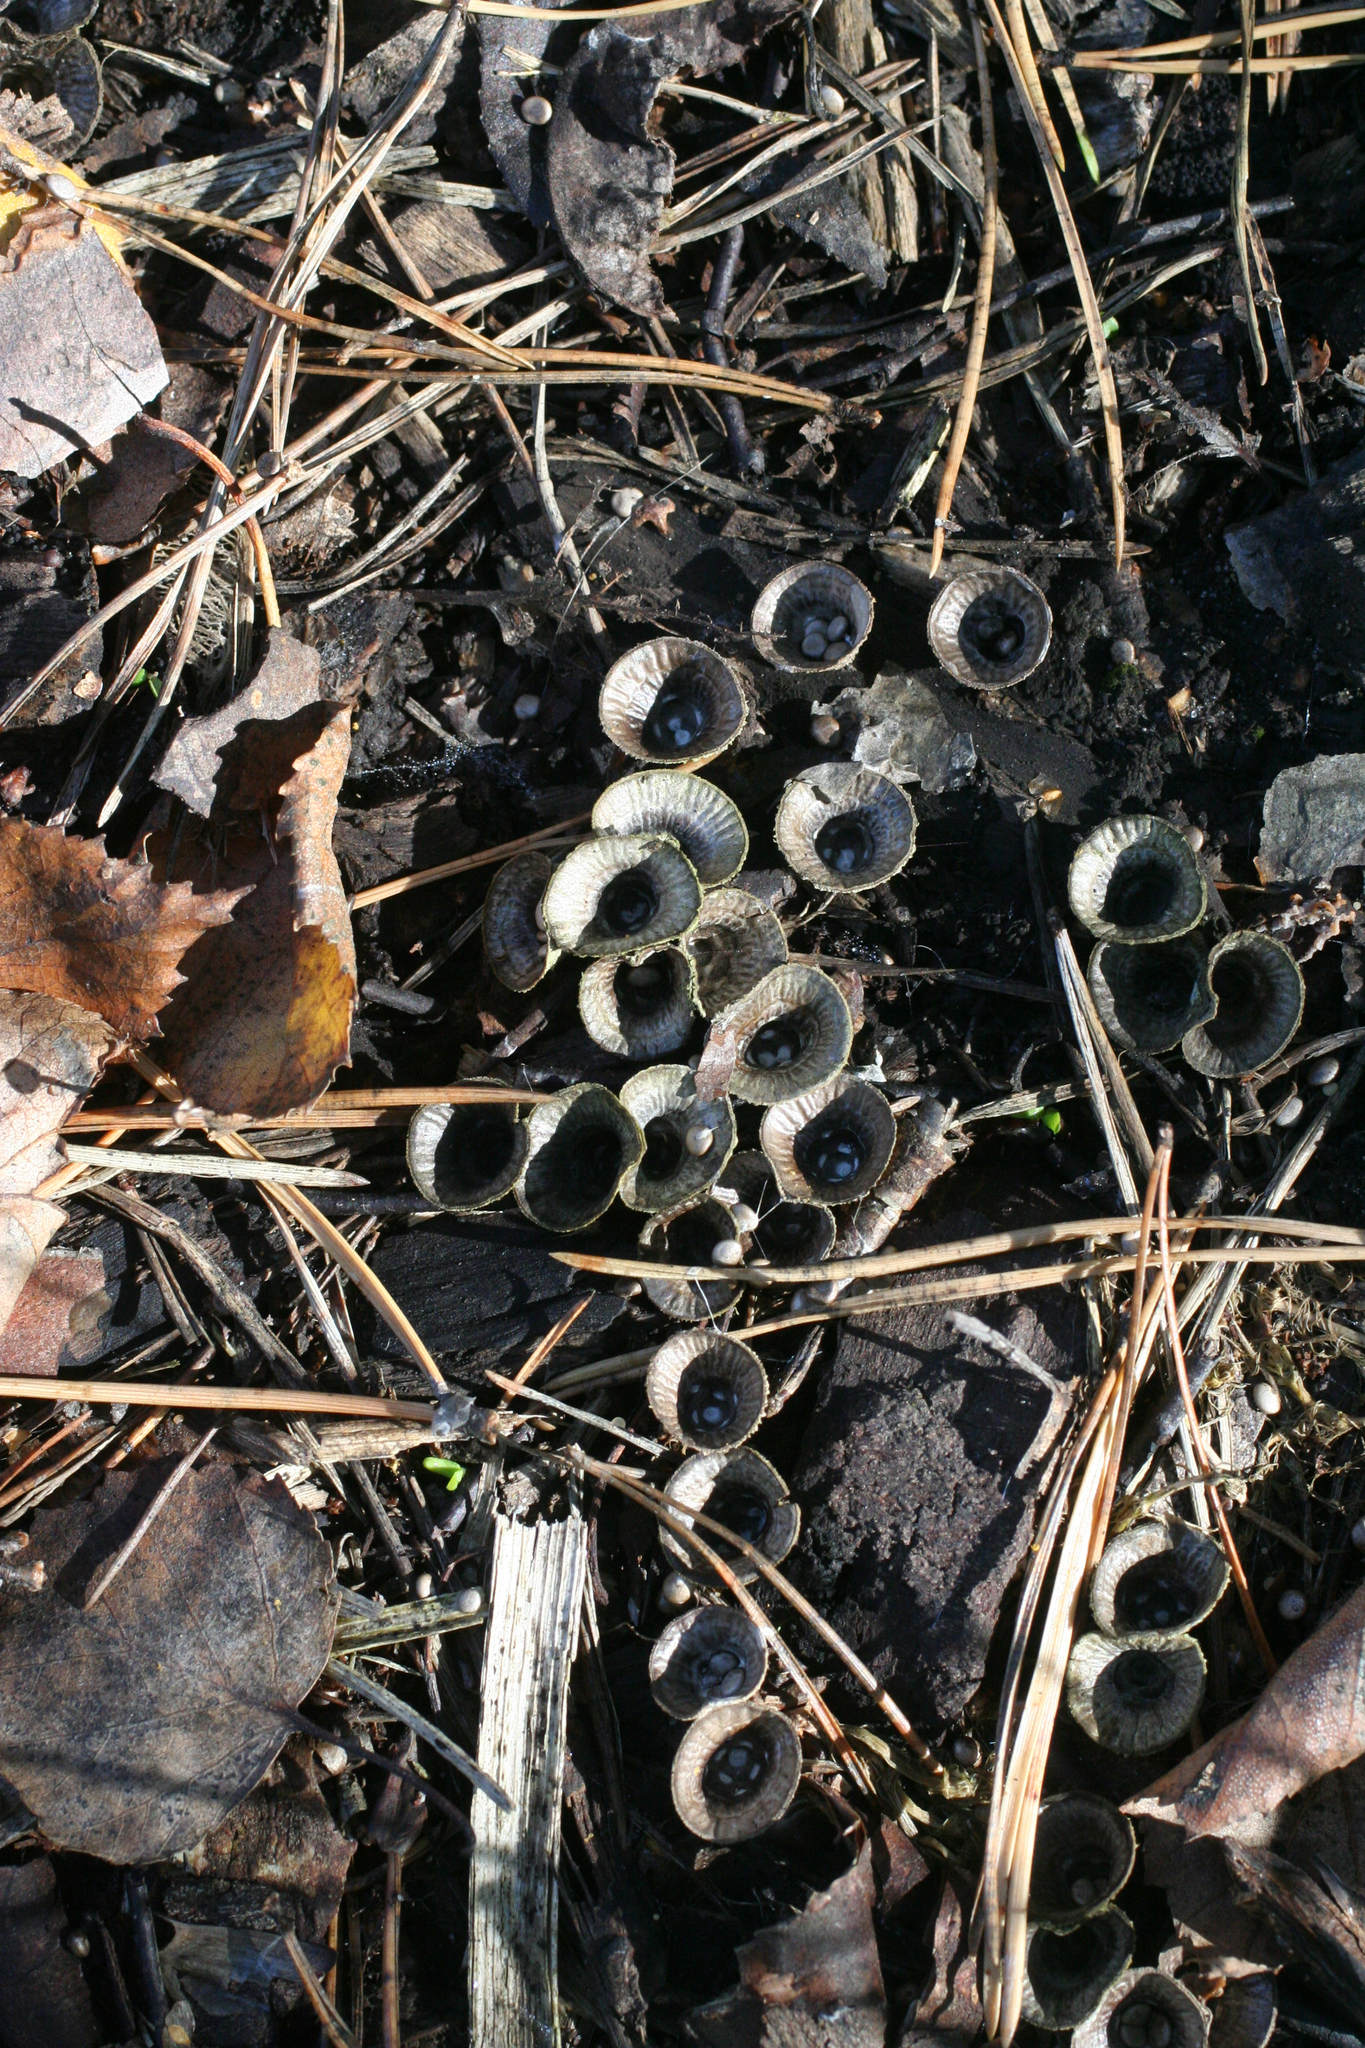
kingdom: Fungi
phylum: Basidiomycota
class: Agaricomycetes
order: Agaricales
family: Agaricaceae
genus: Cyathus
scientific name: Cyathus striatus
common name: Fluted bird's nest
